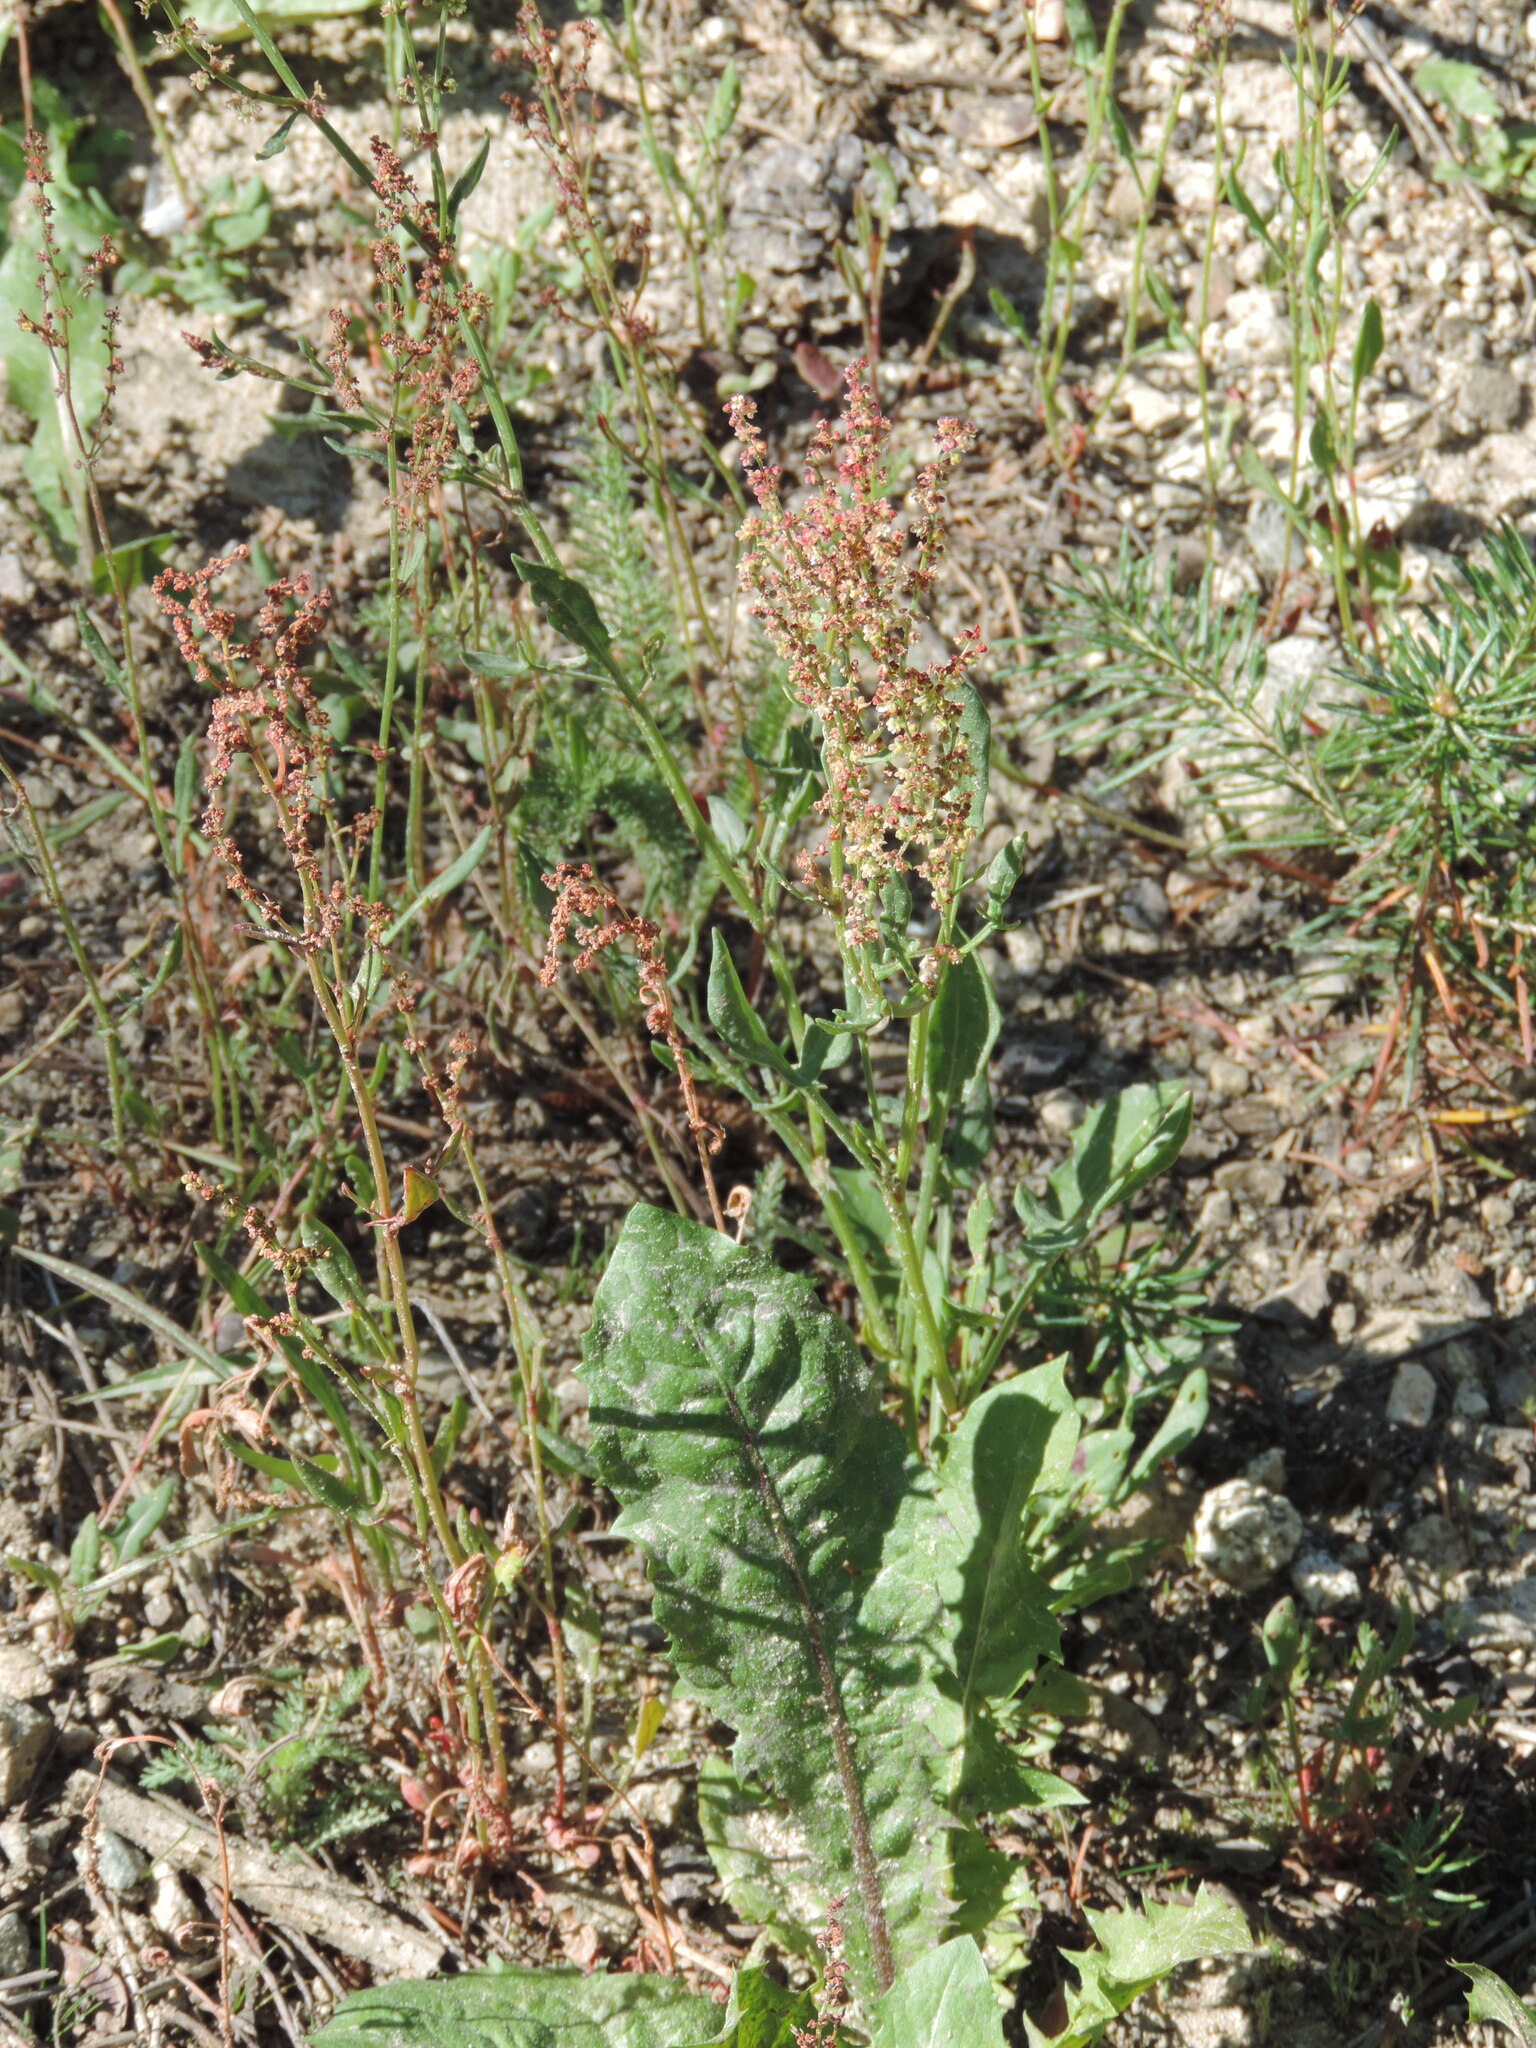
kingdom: Plantae
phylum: Tracheophyta
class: Magnoliopsida
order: Caryophyllales
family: Polygonaceae
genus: Rumex
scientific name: Rumex acetosella
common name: Common sheep sorrel
